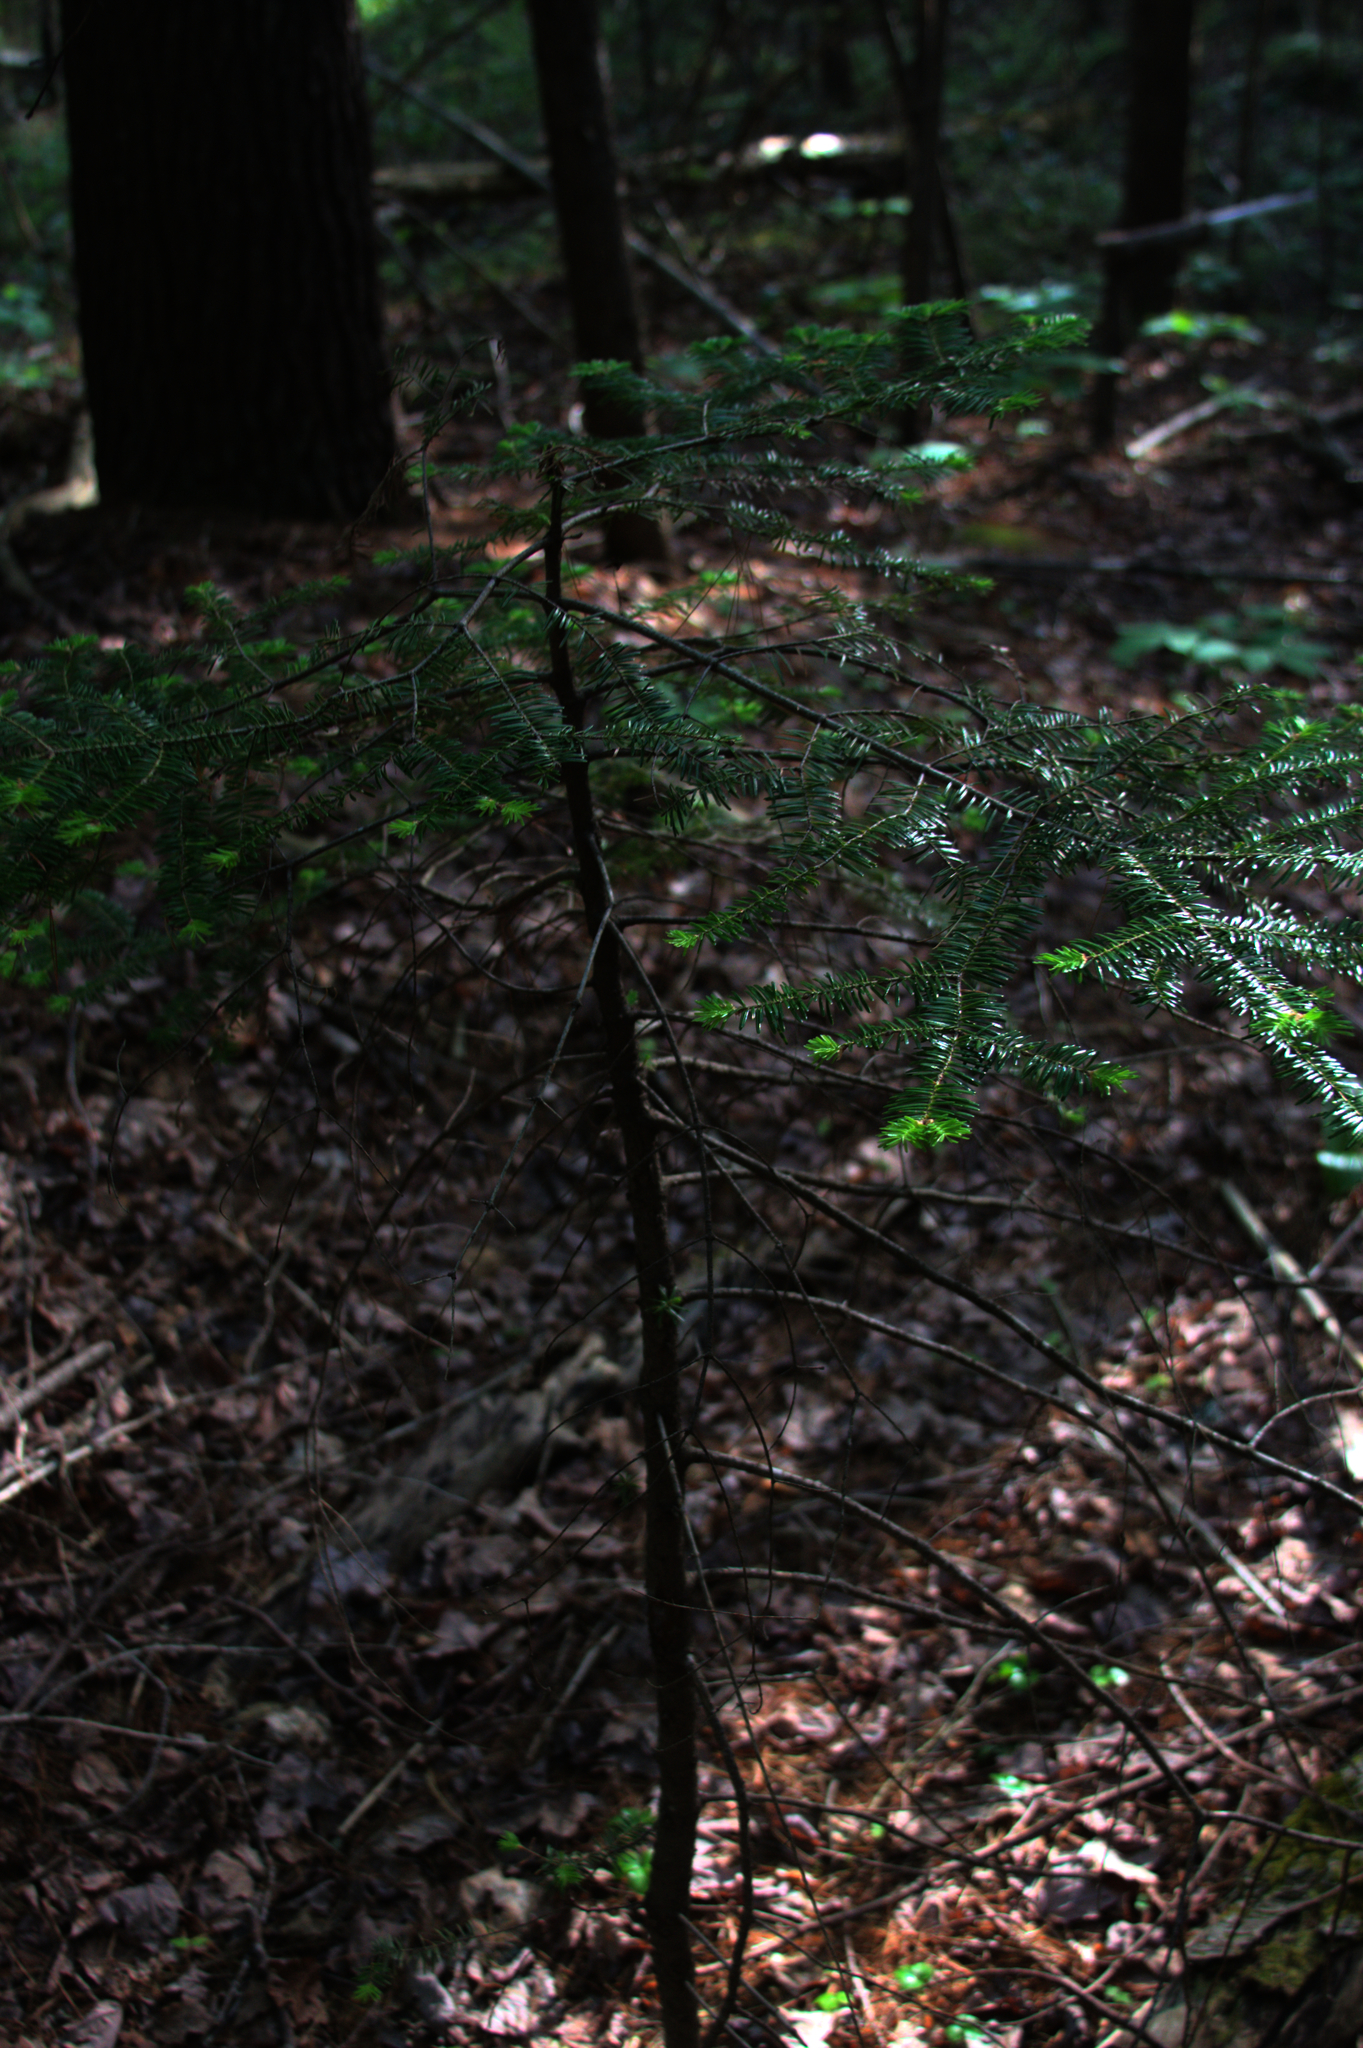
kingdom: Plantae
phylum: Tracheophyta
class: Pinopsida
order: Pinales
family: Pinaceae
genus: Abies
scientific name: Abies balsamea
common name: Balsam fir
